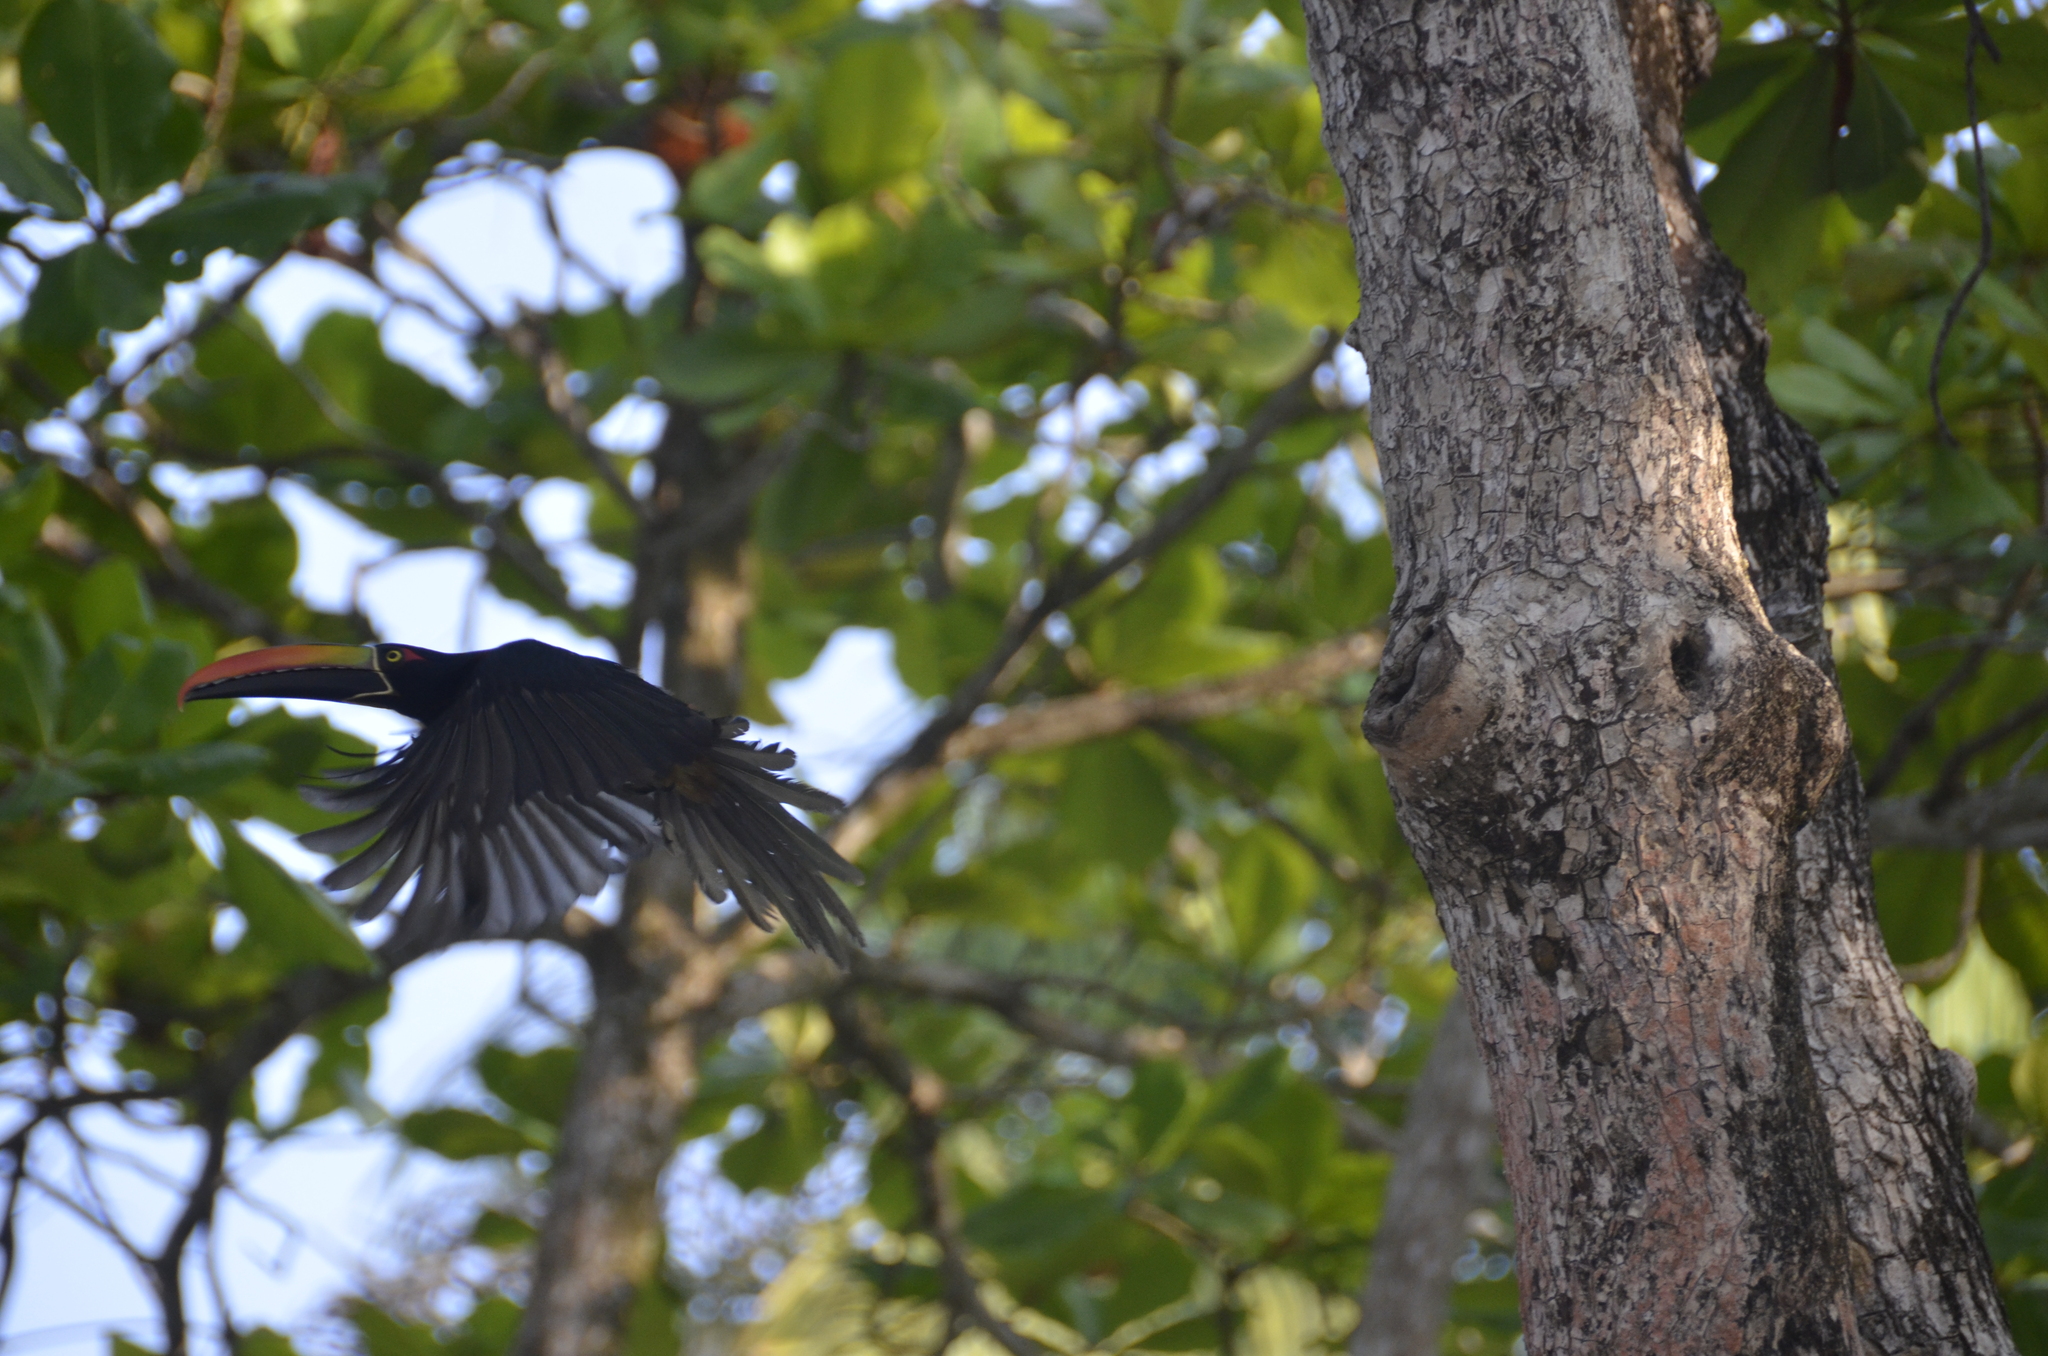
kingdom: Animalia
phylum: Chordata
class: Aves
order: Piciformes
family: Ramphastidae
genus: Pteroglossus
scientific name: Pteroglossus frantzii
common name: Fiery-billed aracari
